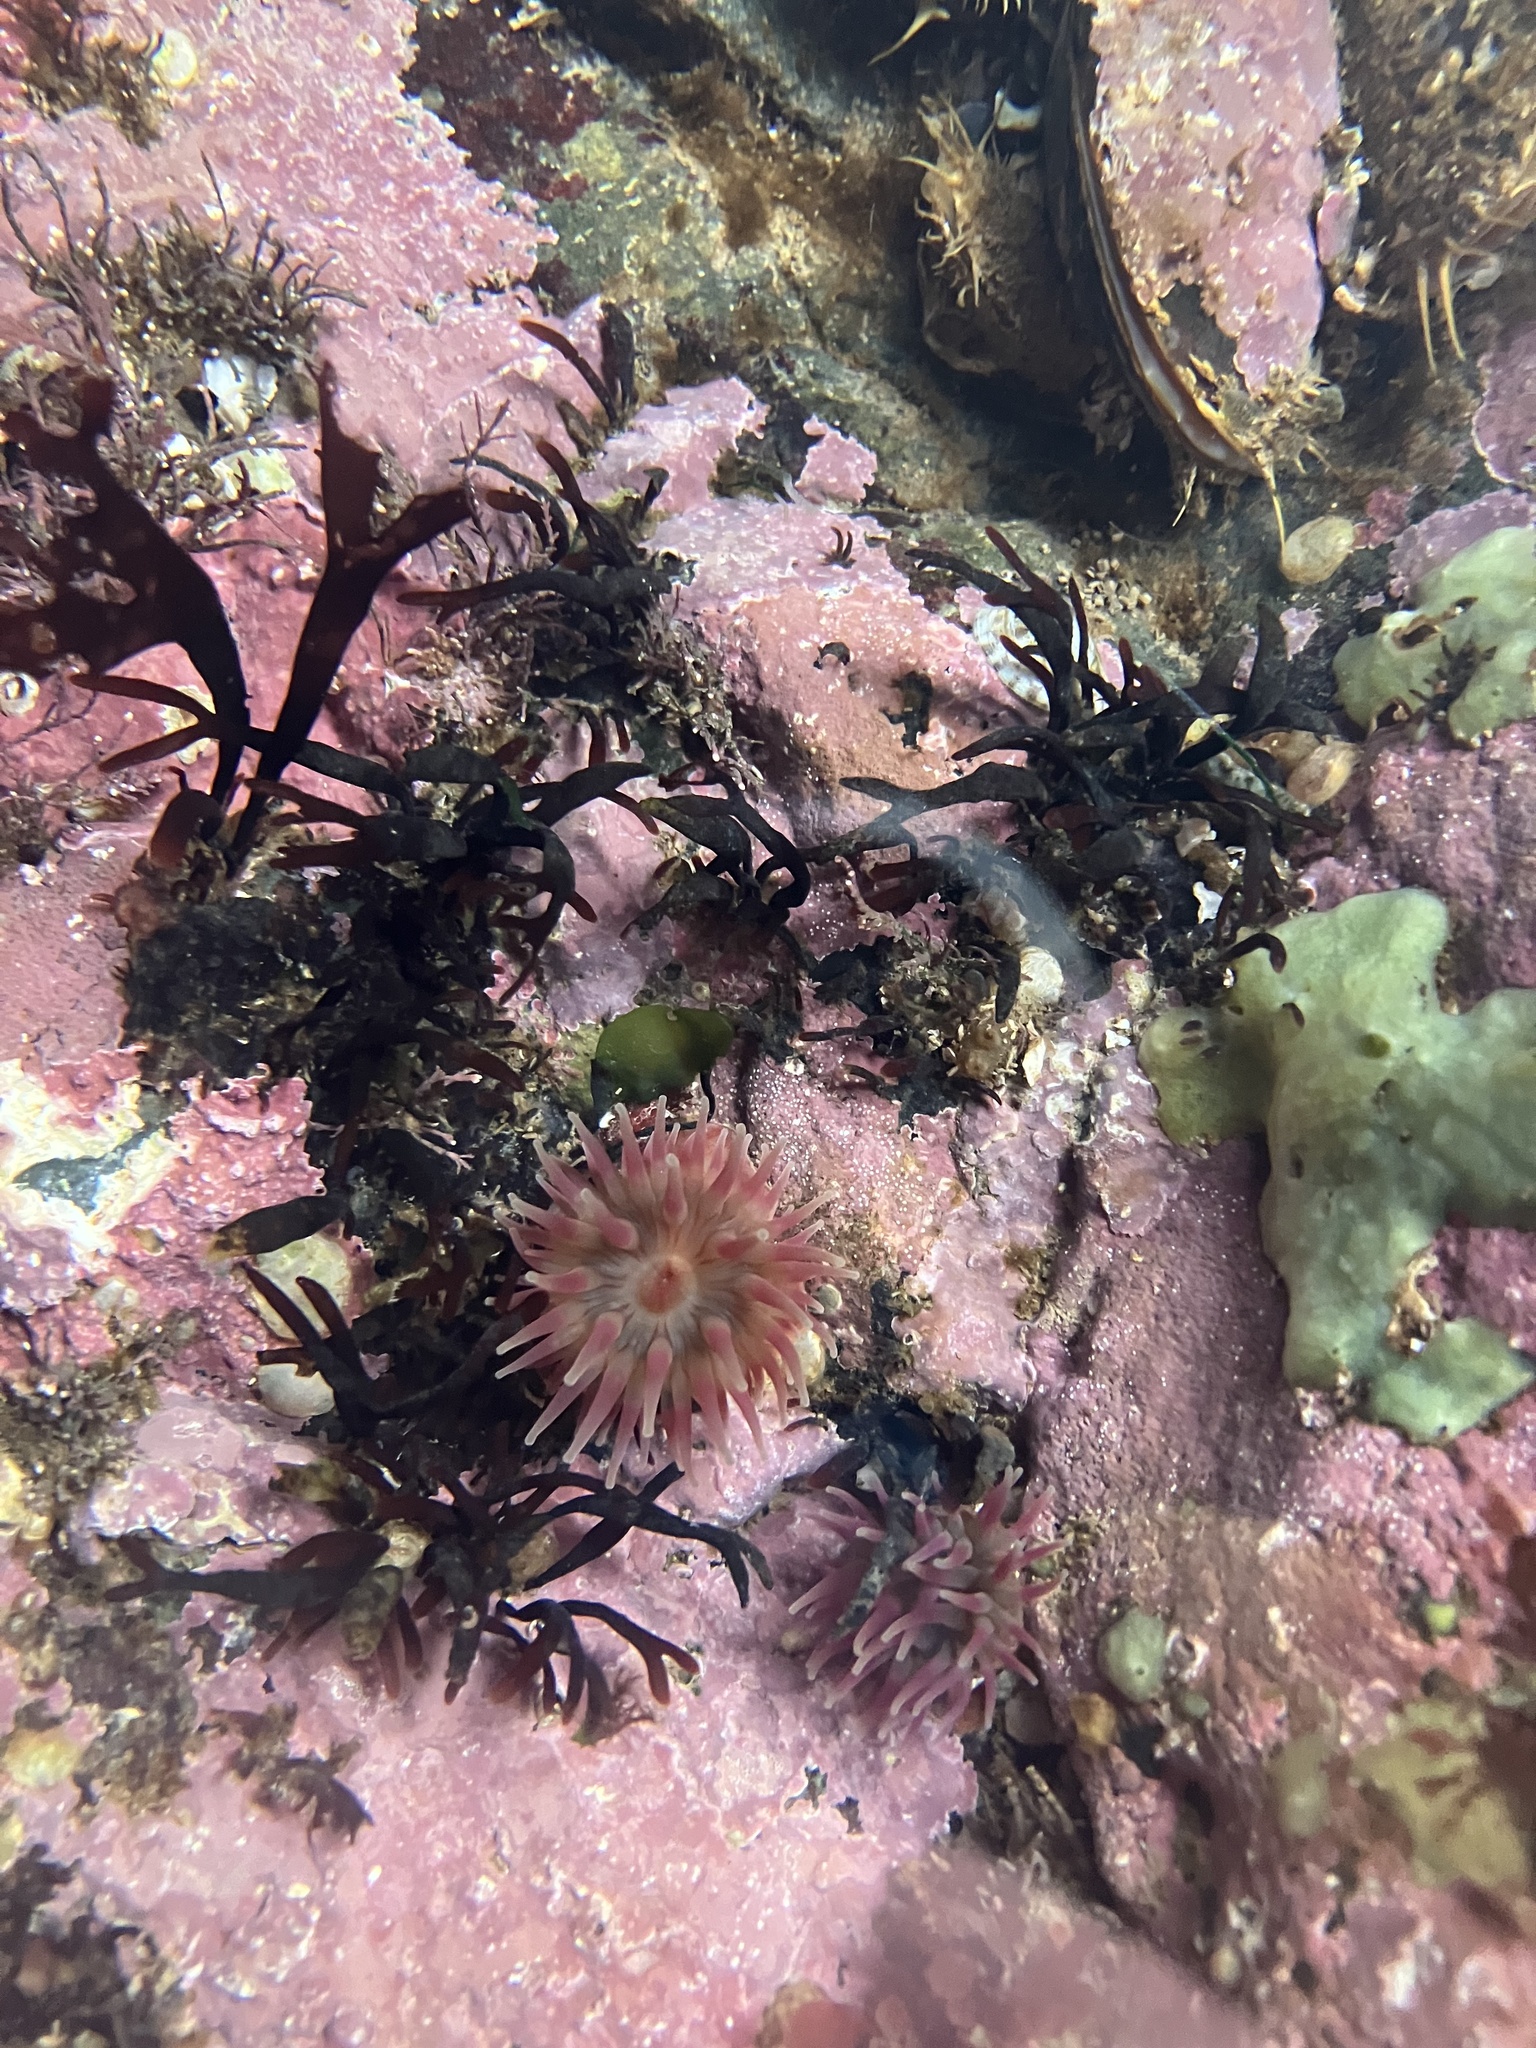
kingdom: Animalia
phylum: Cnidaria
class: Anthozoa
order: Actiniaria
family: Actiniidae
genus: Urticina
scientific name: Urticina crassicornis
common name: Mottled anemone
